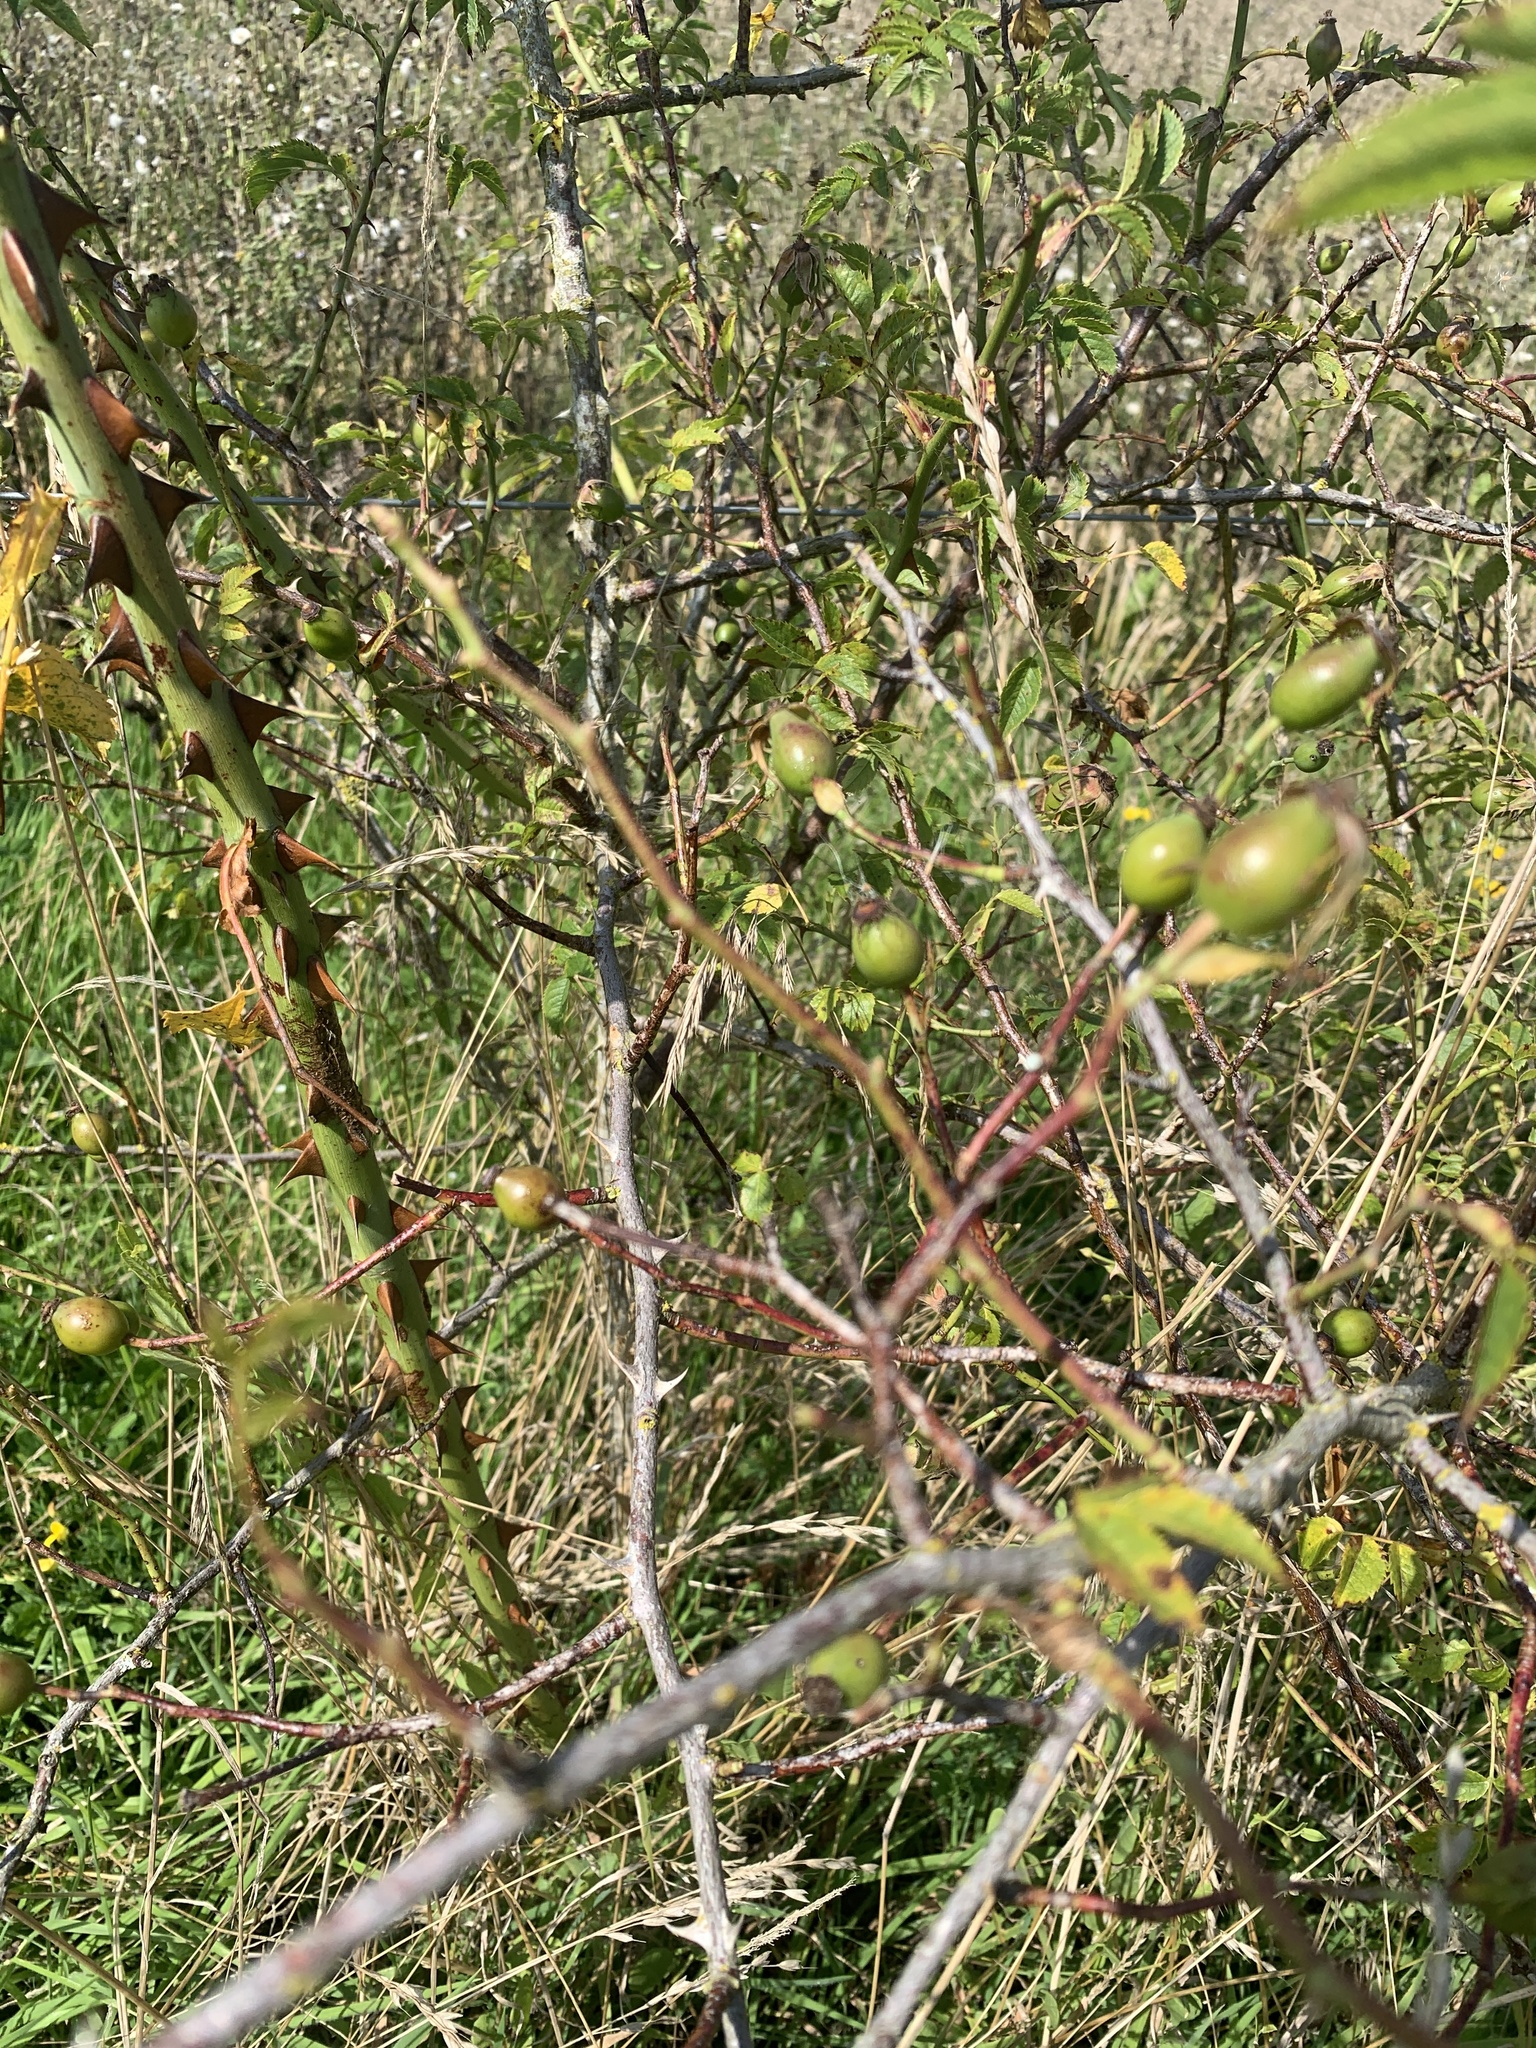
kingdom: Plantae
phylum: Tracheophyta
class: Magnoliopsida
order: Rosales
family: Rosaceae
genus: Prunus
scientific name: Prunus spinosa
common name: Blackthorn
